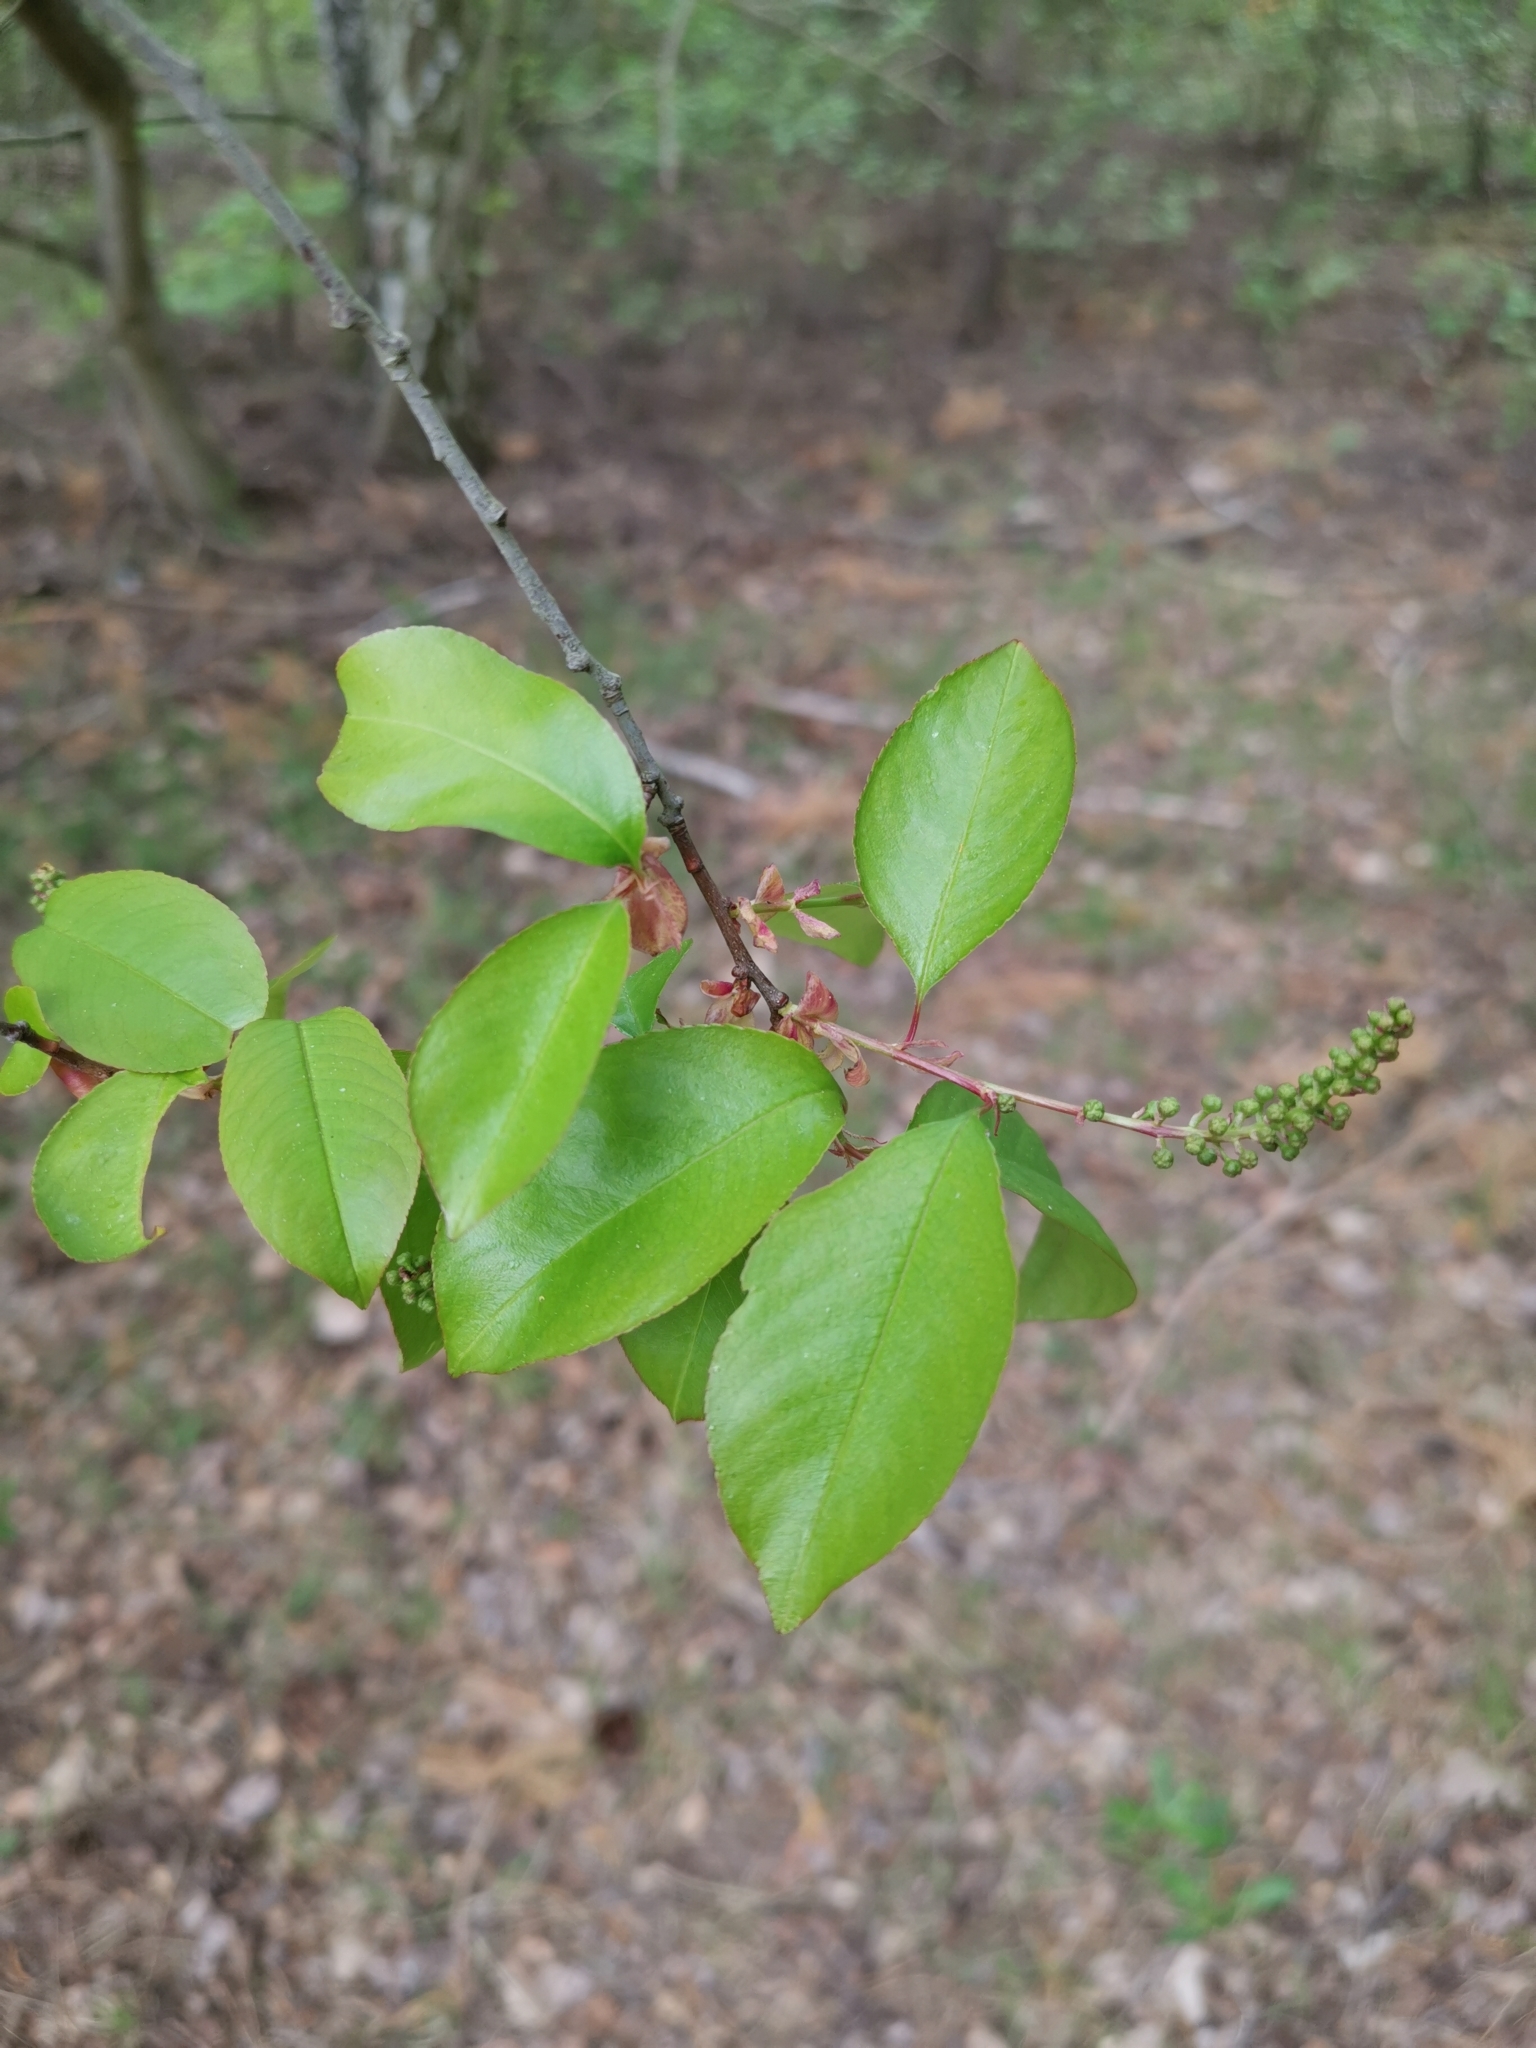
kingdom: Plantae
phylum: Tracheophyta
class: Magnoliopsida
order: Rosales
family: Rosaceae
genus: Prunus
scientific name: Prunus serotina
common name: Black cherry
